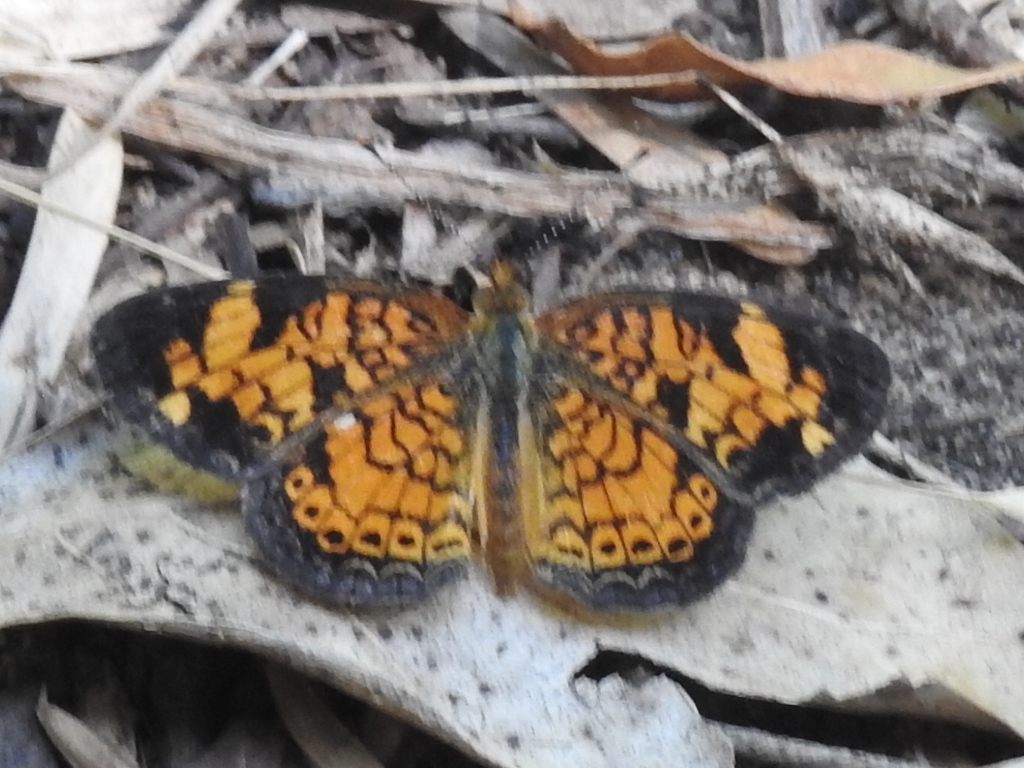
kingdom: Animalia
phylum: Arthropoda
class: Insecta
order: Lepidoptera
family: Nymphalidae
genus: Phyciodes
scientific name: Phyciodes tharos
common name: Pearl crescent
